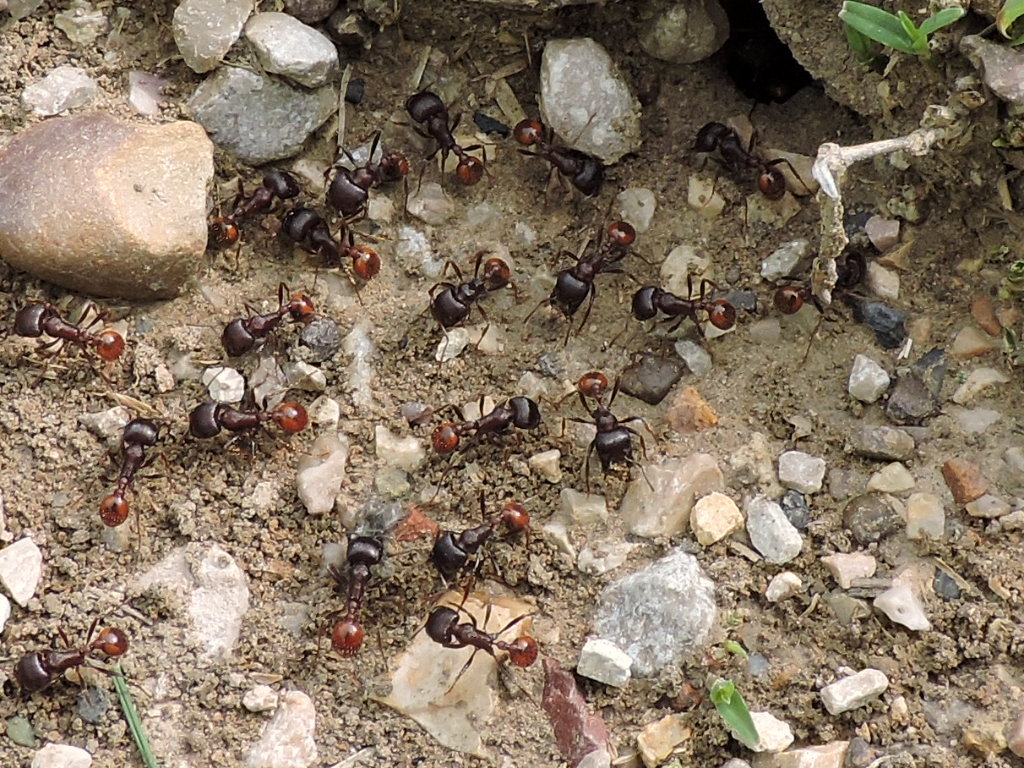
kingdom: Animalia
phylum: Arthropoda
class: Insecta
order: Hymenoptera
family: Formicidae
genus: Pogonomyrmex
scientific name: Pogonomyrmex rugosus
